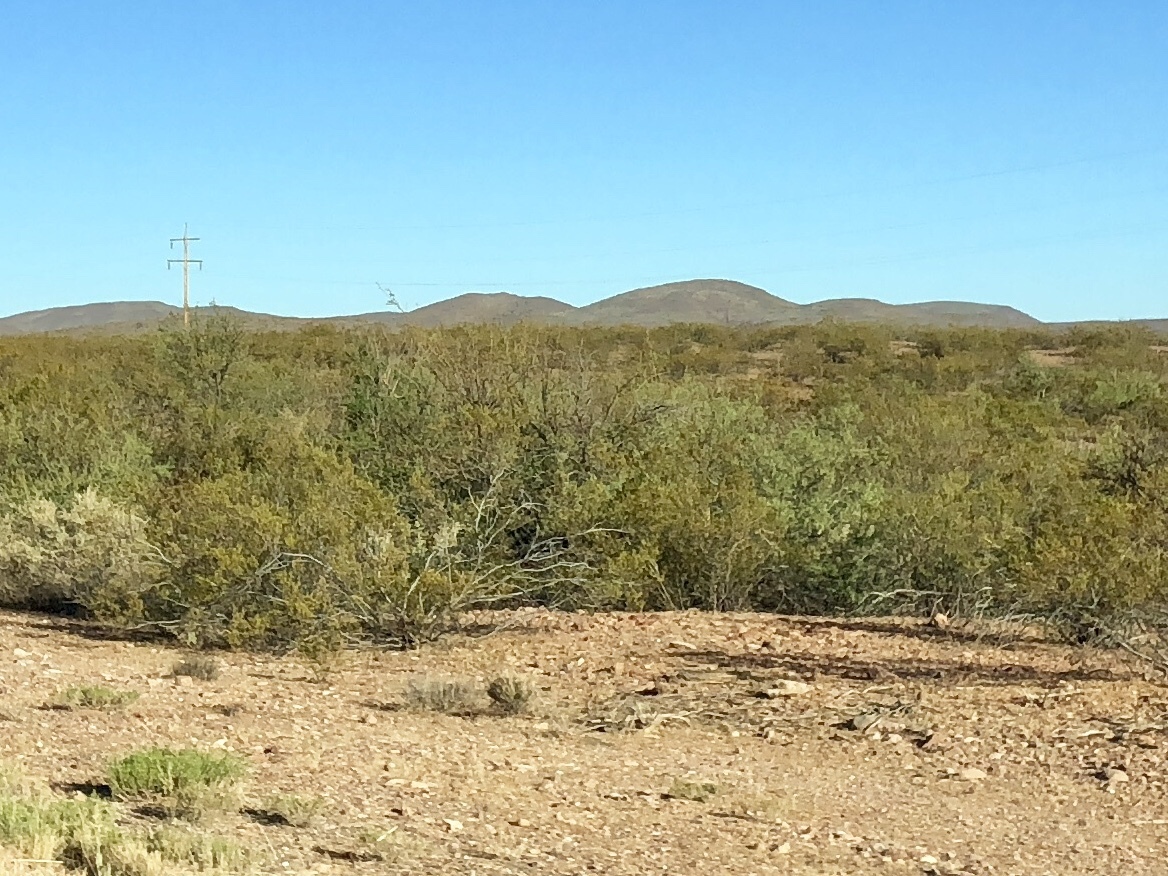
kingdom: Plantae
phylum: Tracheophyta
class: Magnoliopsida
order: Zygophyllales
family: Zygophyllaceae
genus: Larrea
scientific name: Larrea tridentata
